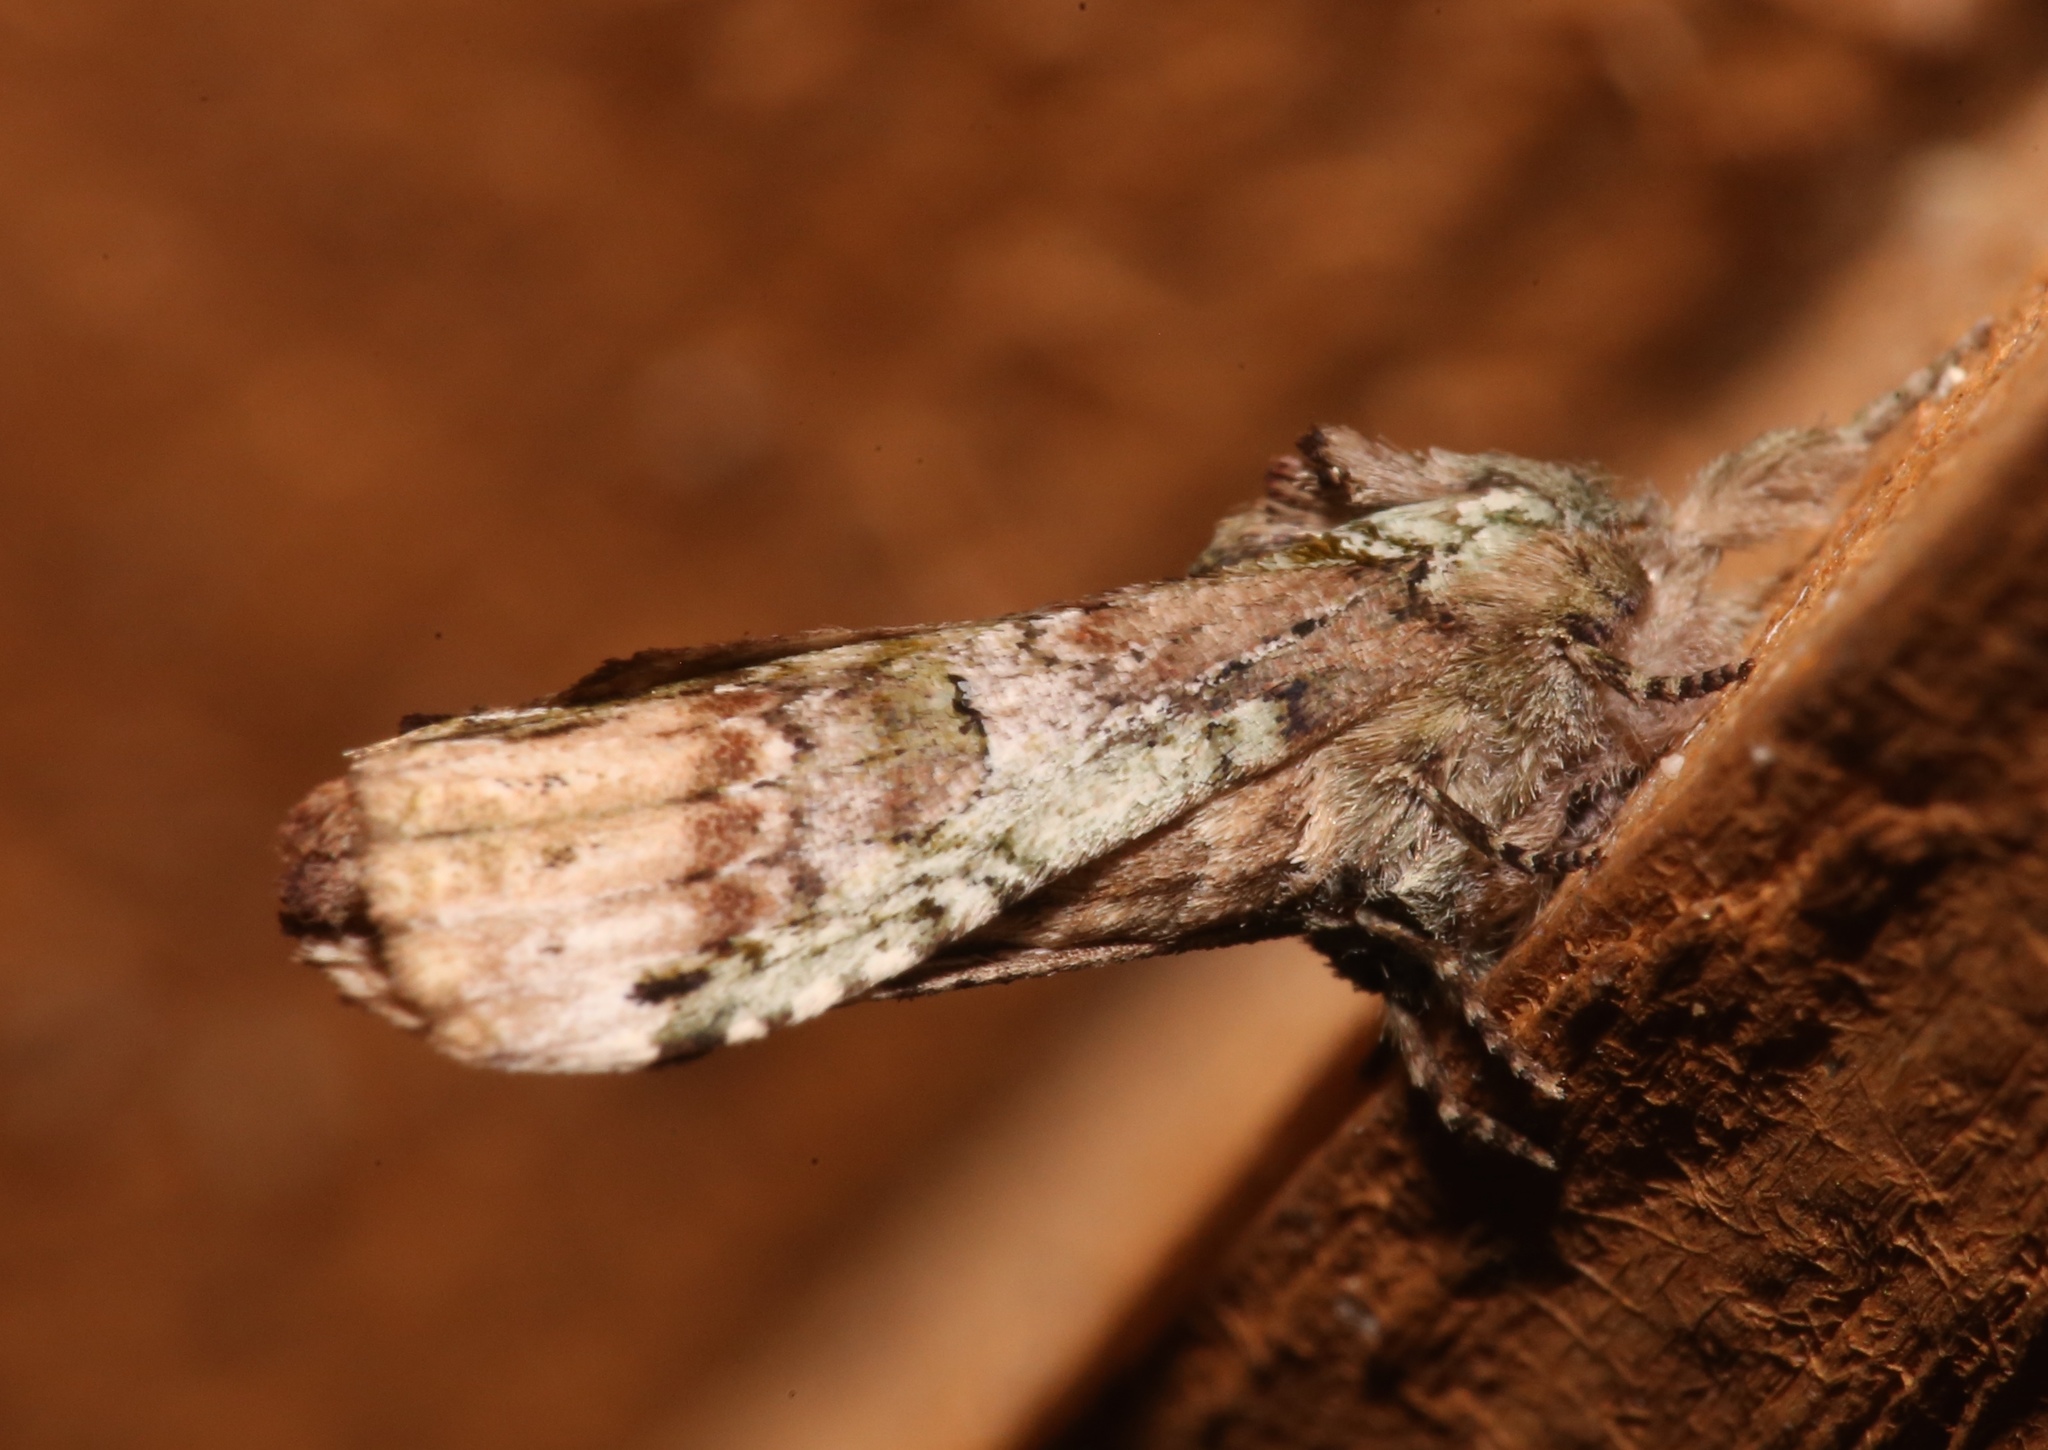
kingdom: Animalia
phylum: Arthropoda
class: Insecta
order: Lepidoptera
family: Notodontidae
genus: Schizura
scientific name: Schizura
